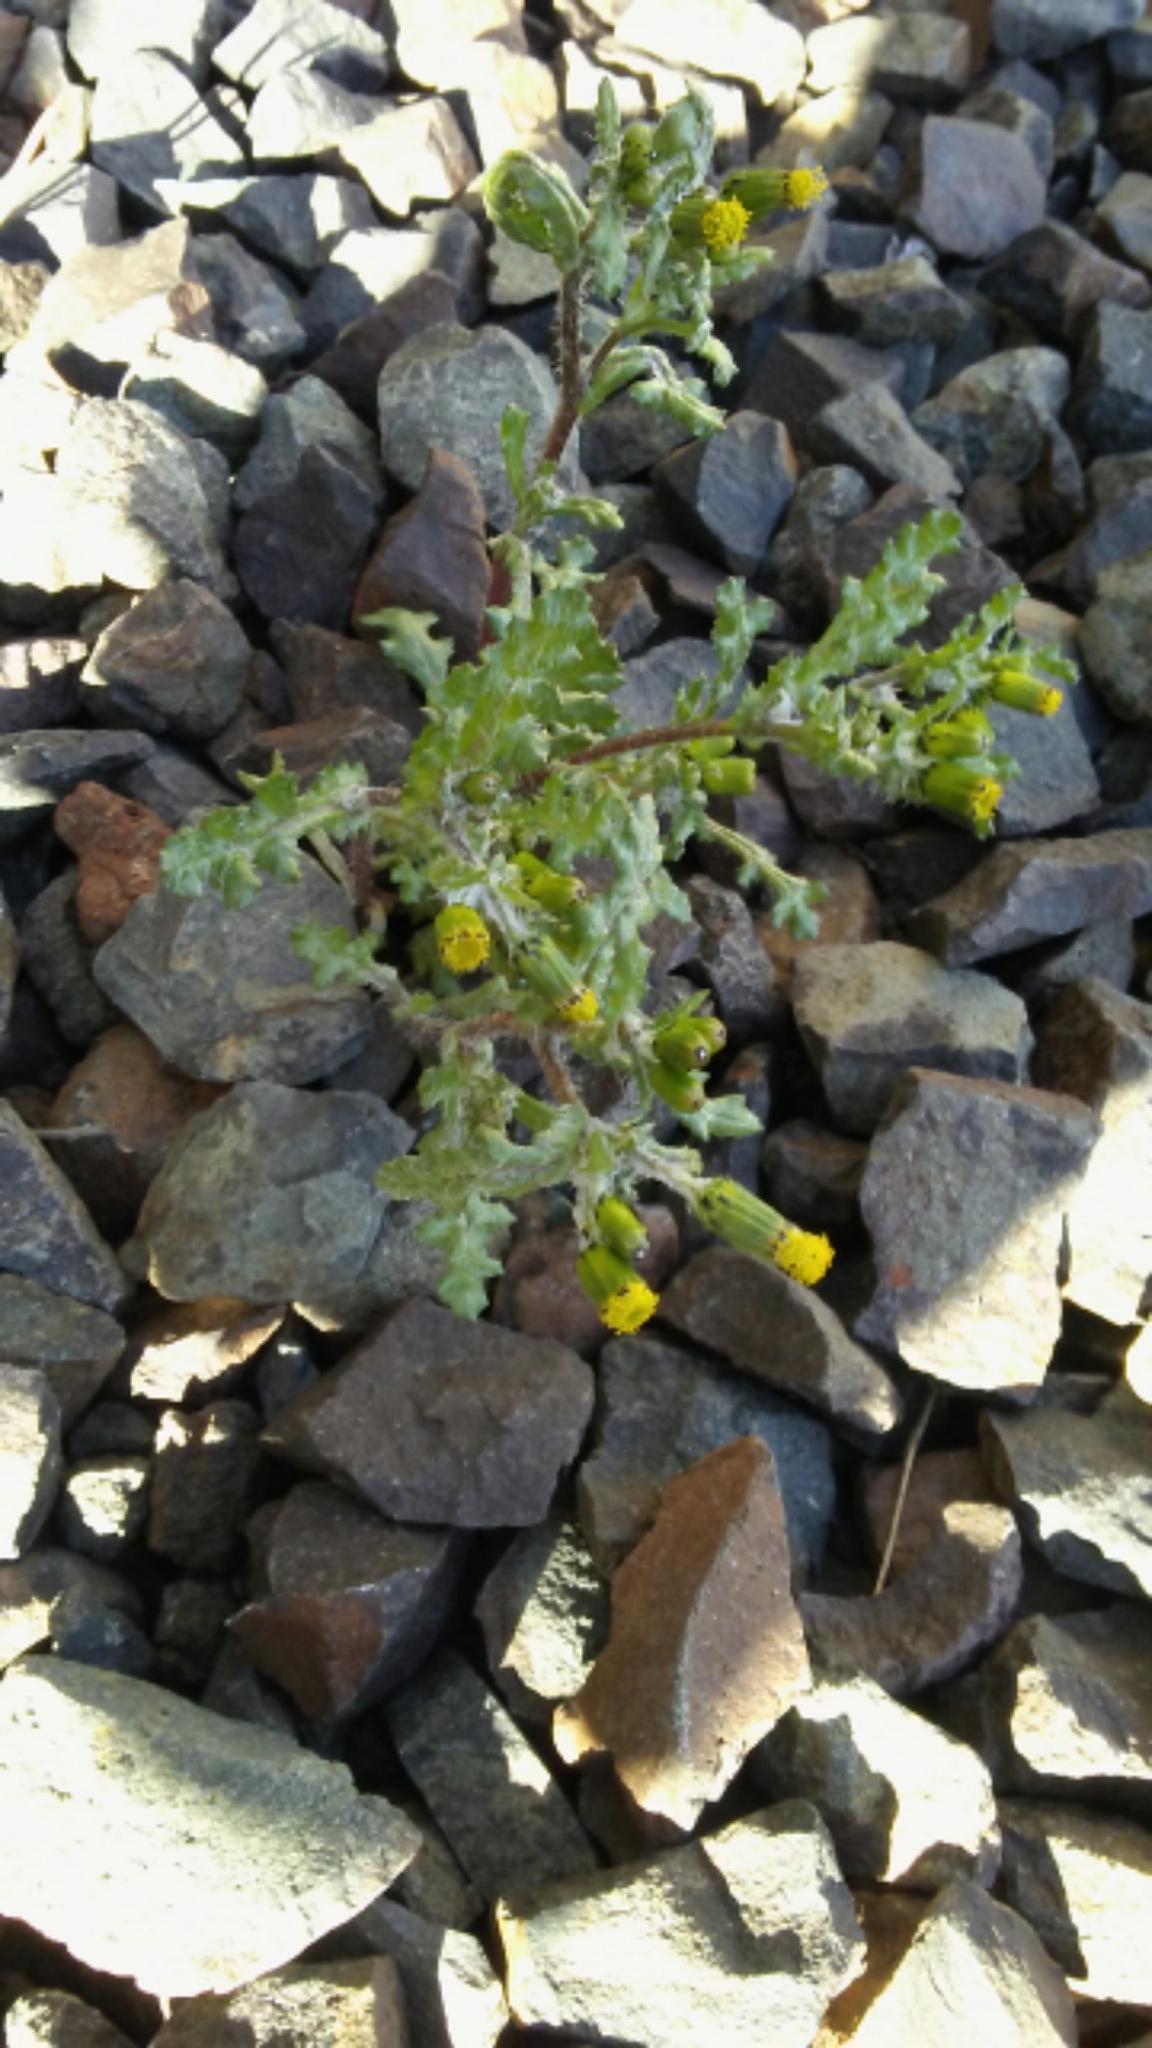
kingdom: Plantae
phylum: Tracheophyta
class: Magnoliopsida
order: Asterales
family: Asteraceae
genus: Senecio
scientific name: Senecio vulgaris
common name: Old-man-in-the-spring
